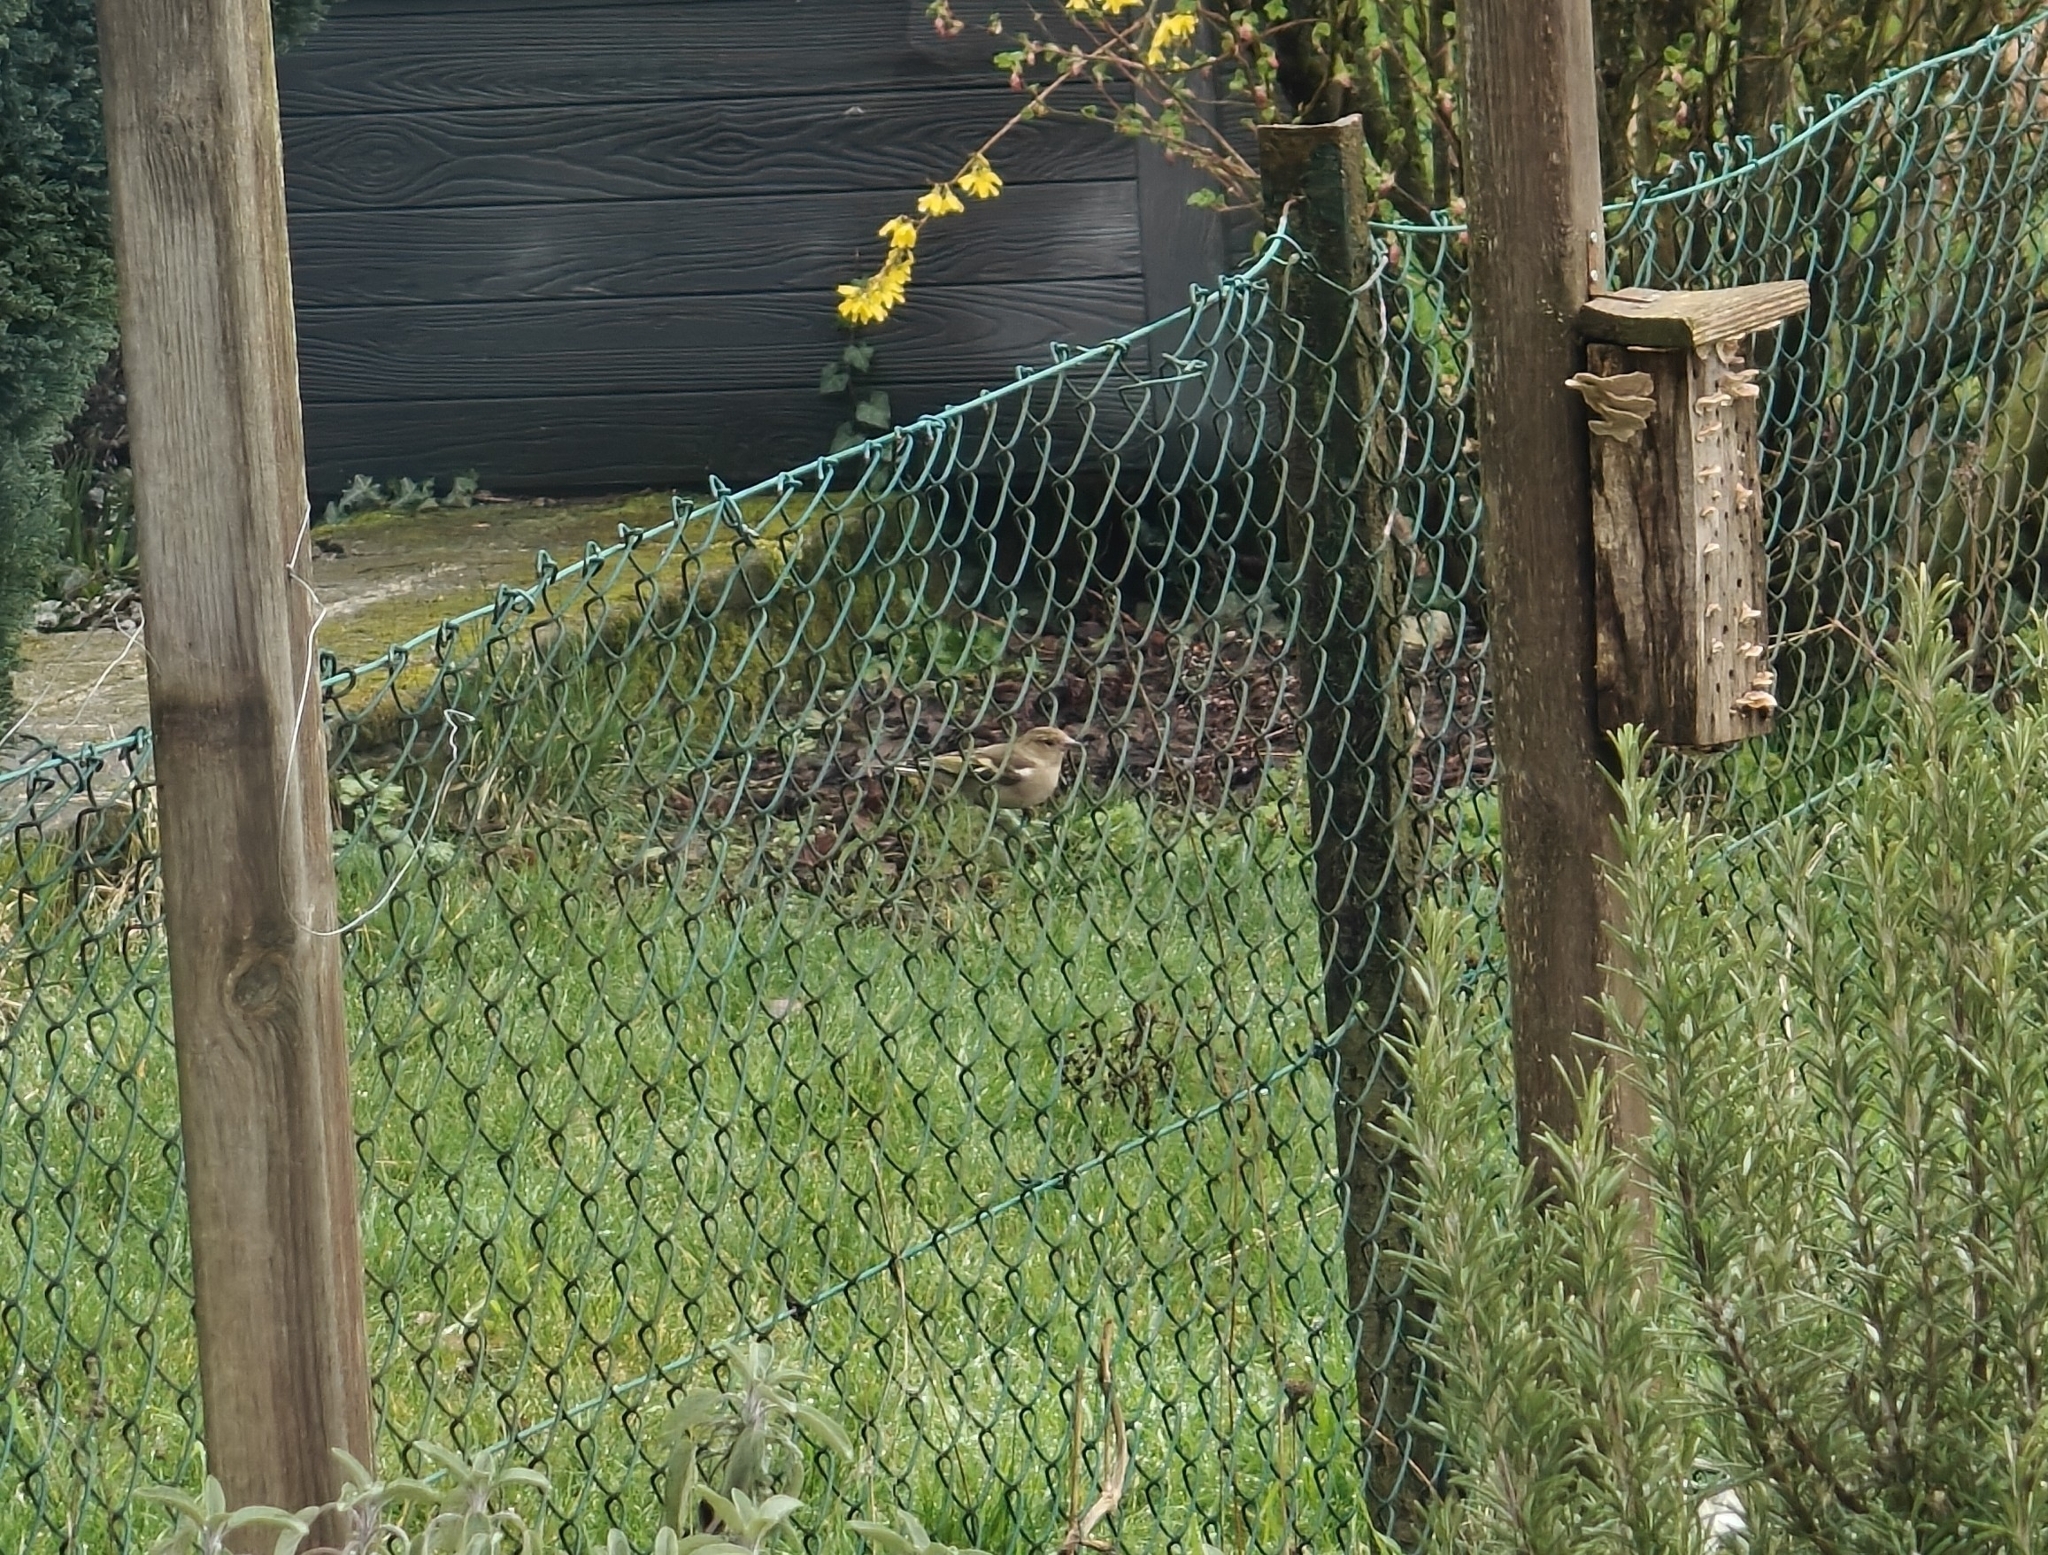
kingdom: Animalia
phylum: Chordata
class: Aves
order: Passeriformes
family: Fringillidae
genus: Fringilla
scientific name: Fringilla coelebs
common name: Common chaffinch
